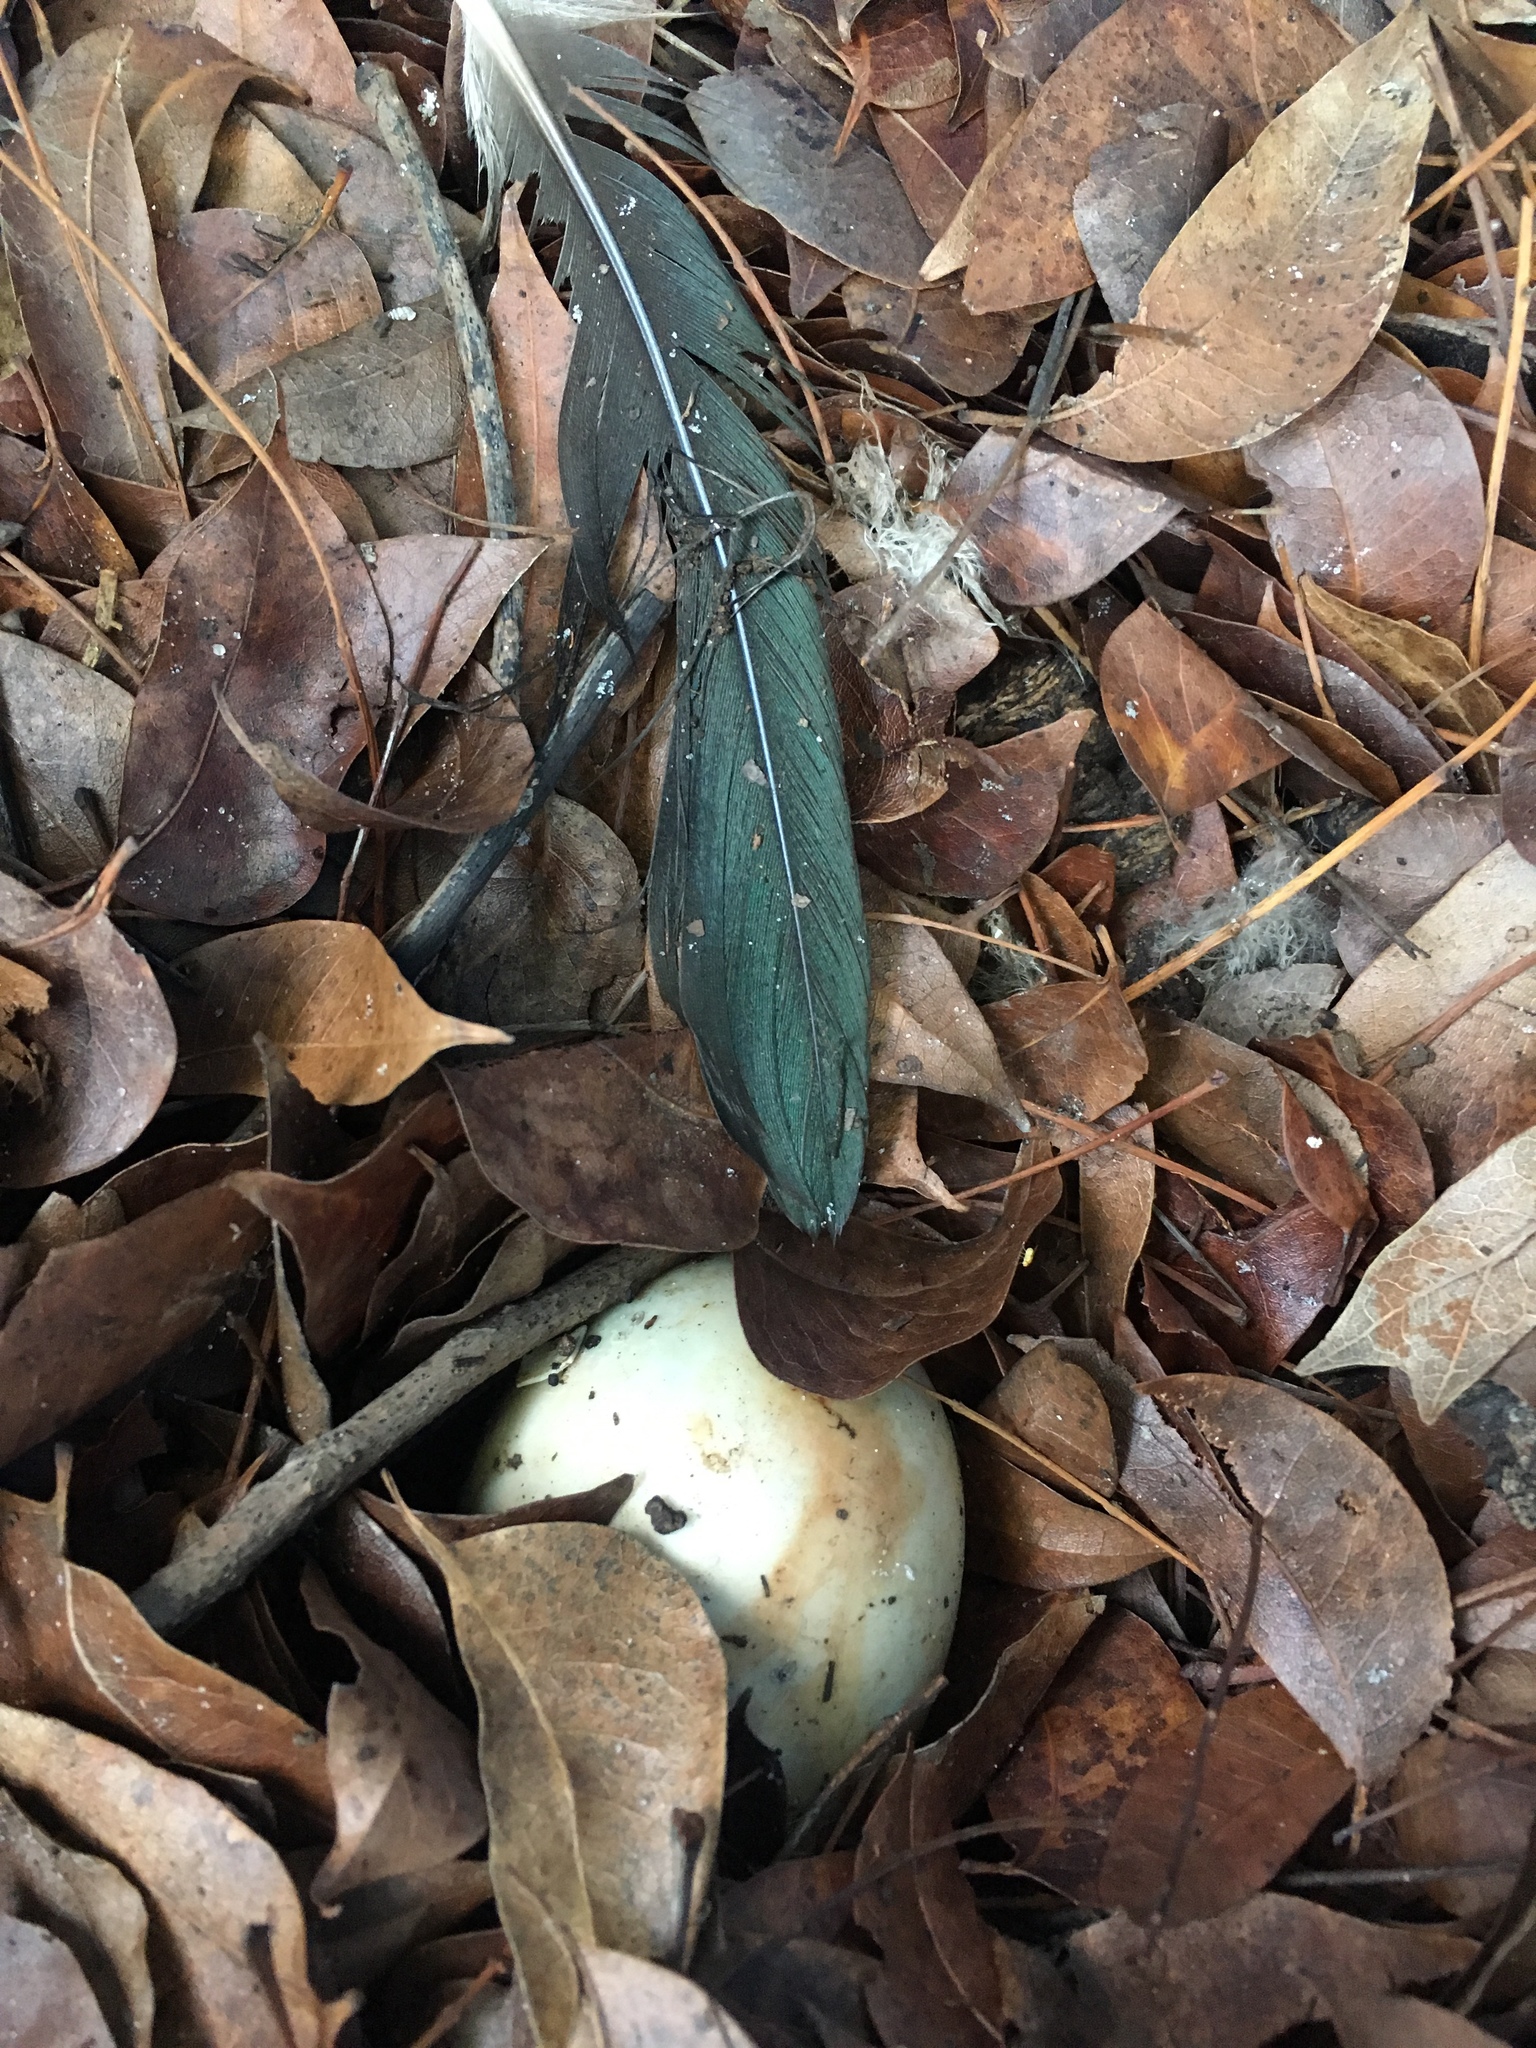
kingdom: Animalia
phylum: Chordata
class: Aves
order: Anseriformes
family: Anatidae
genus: Cairina
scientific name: Cairina moschata
